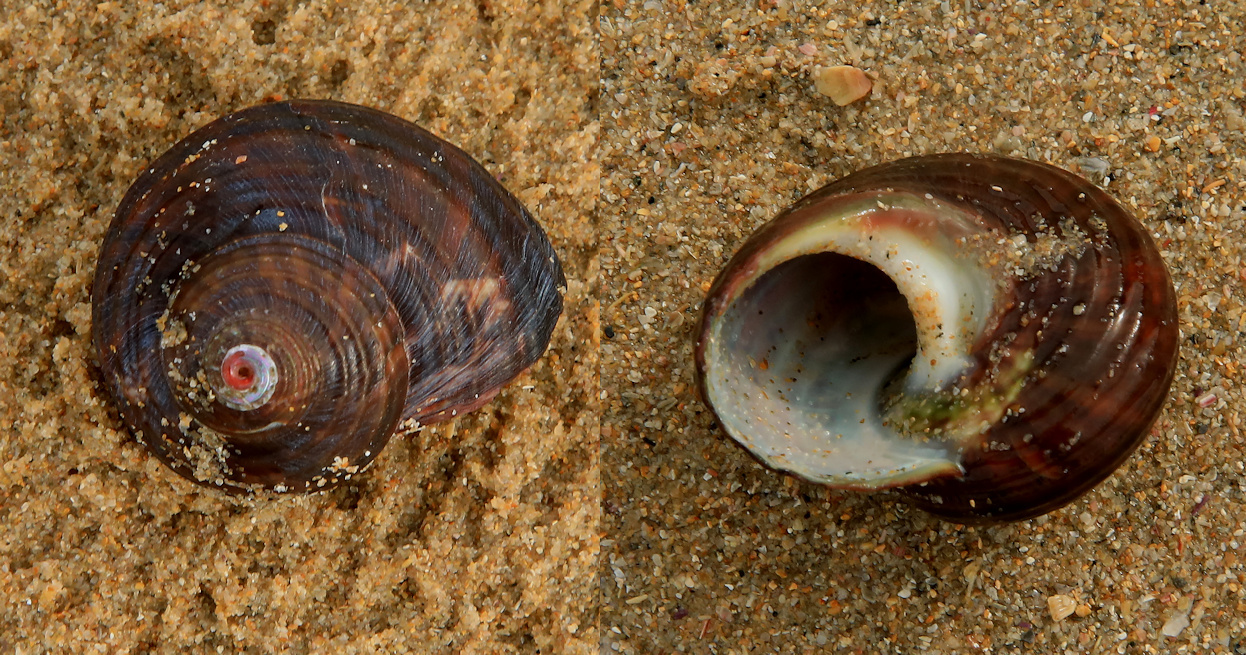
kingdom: Animalia
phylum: Mollusca
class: Gastropoda
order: Trochida
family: Turbinidae
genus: Turbo
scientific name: Turbo cidaris
